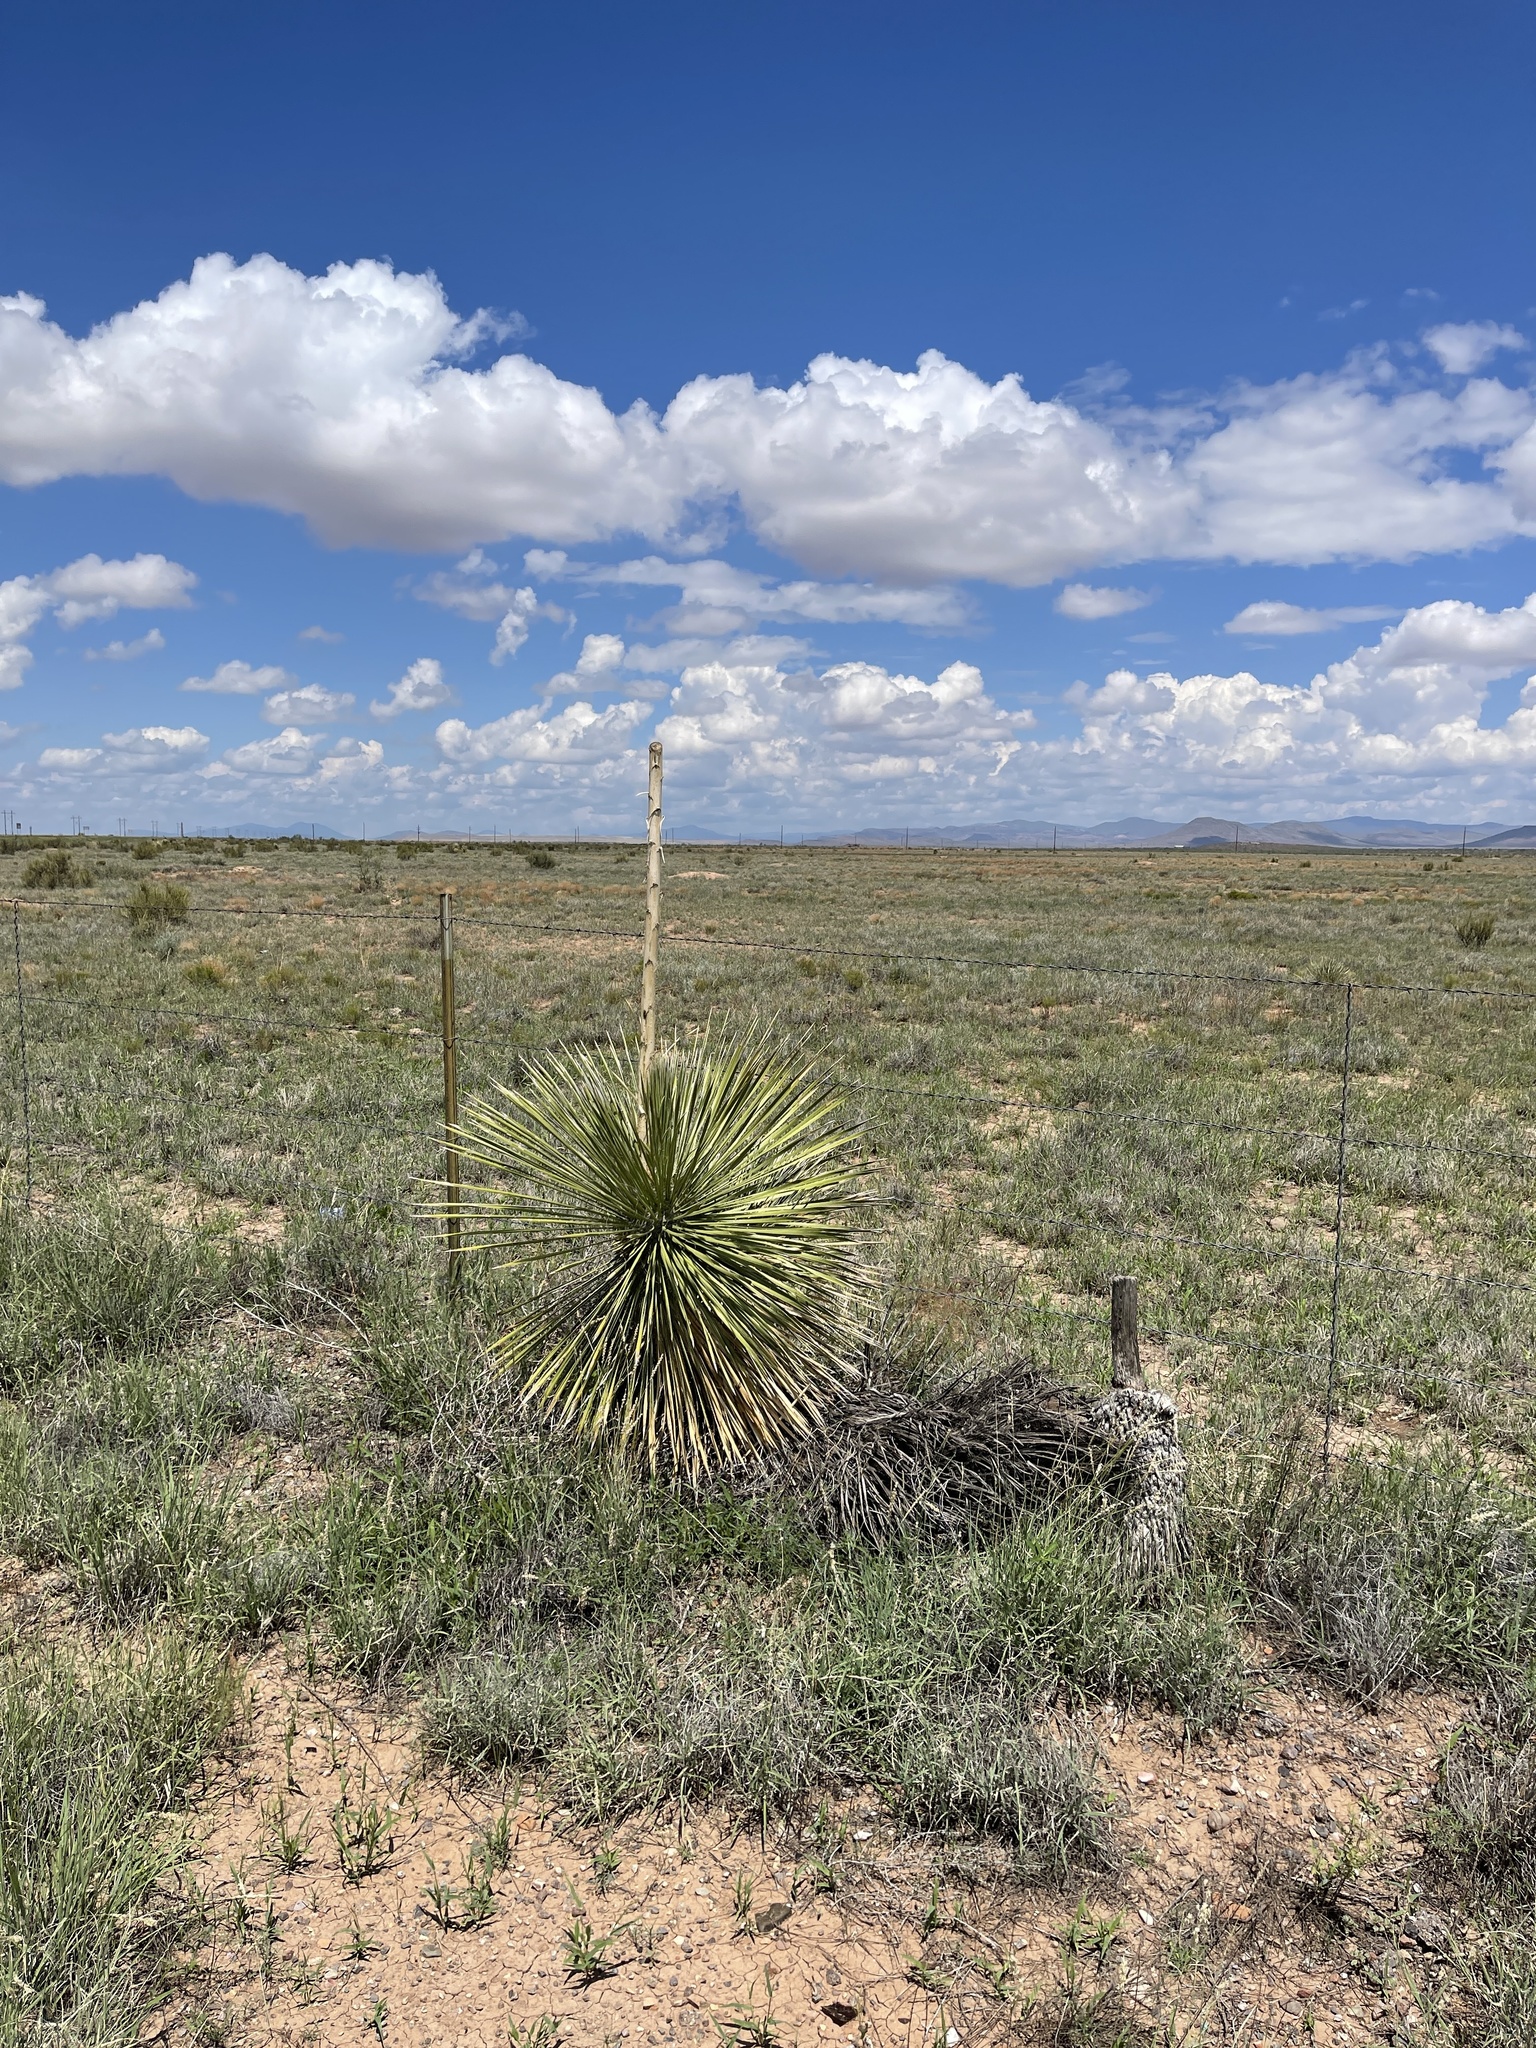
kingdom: Plantae
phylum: Tracheophyta
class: Liliopsida
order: Asparagales
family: Asparagaceae
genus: Yucca
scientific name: Yucca elata
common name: Palmella
